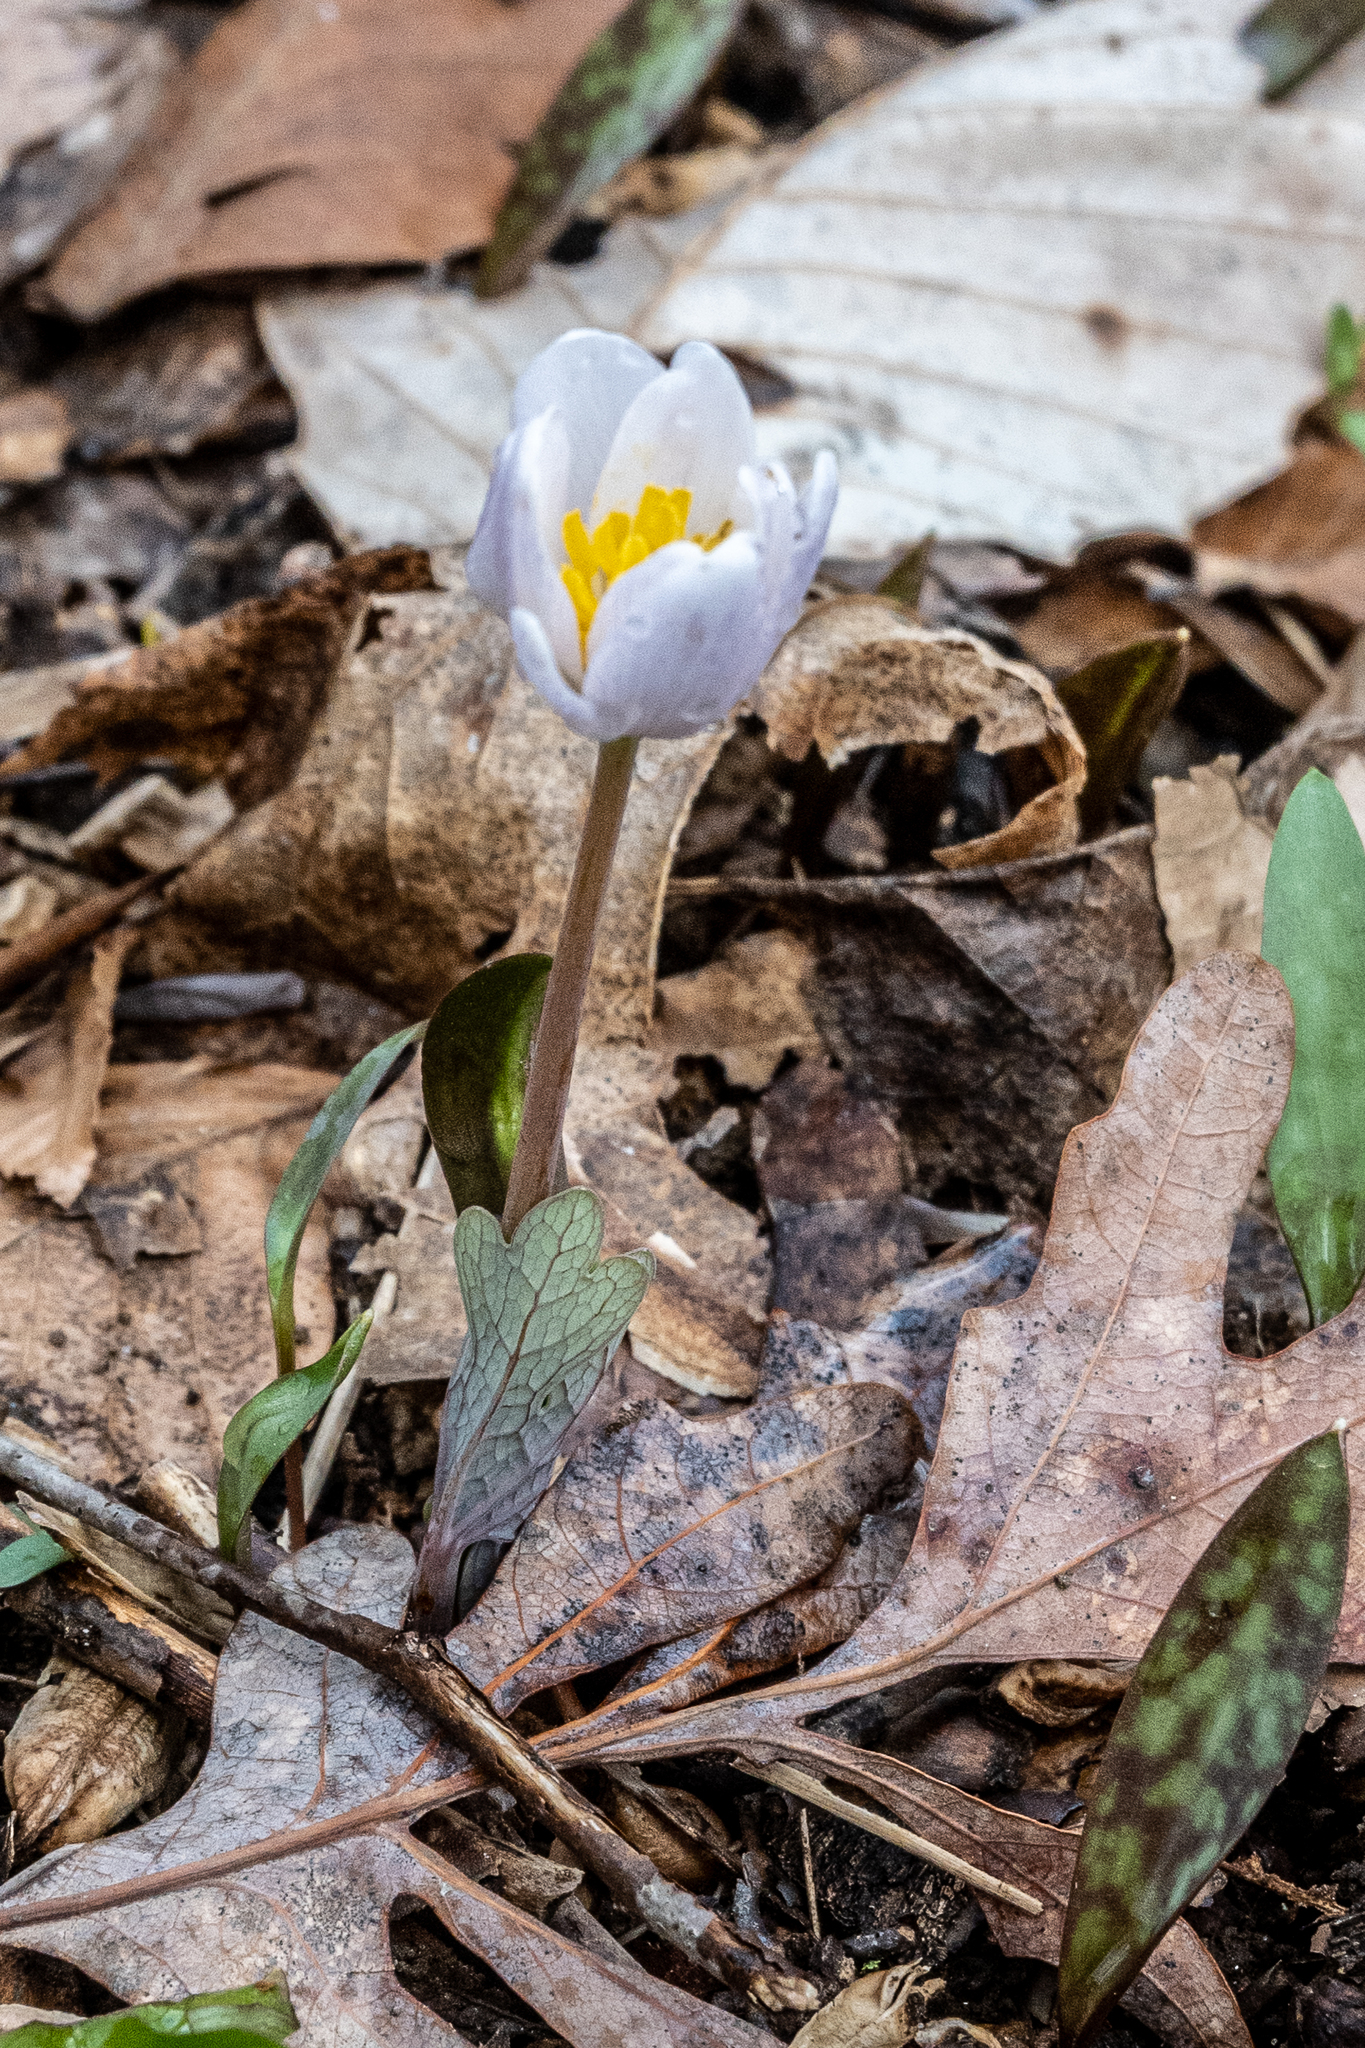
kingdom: Plantae
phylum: Tracheophyta
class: Magnoliopsida
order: Ranunculales
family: Papaveraceae
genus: Sanguinaria
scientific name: Sanguinaria canadensis
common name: Bloodroot
